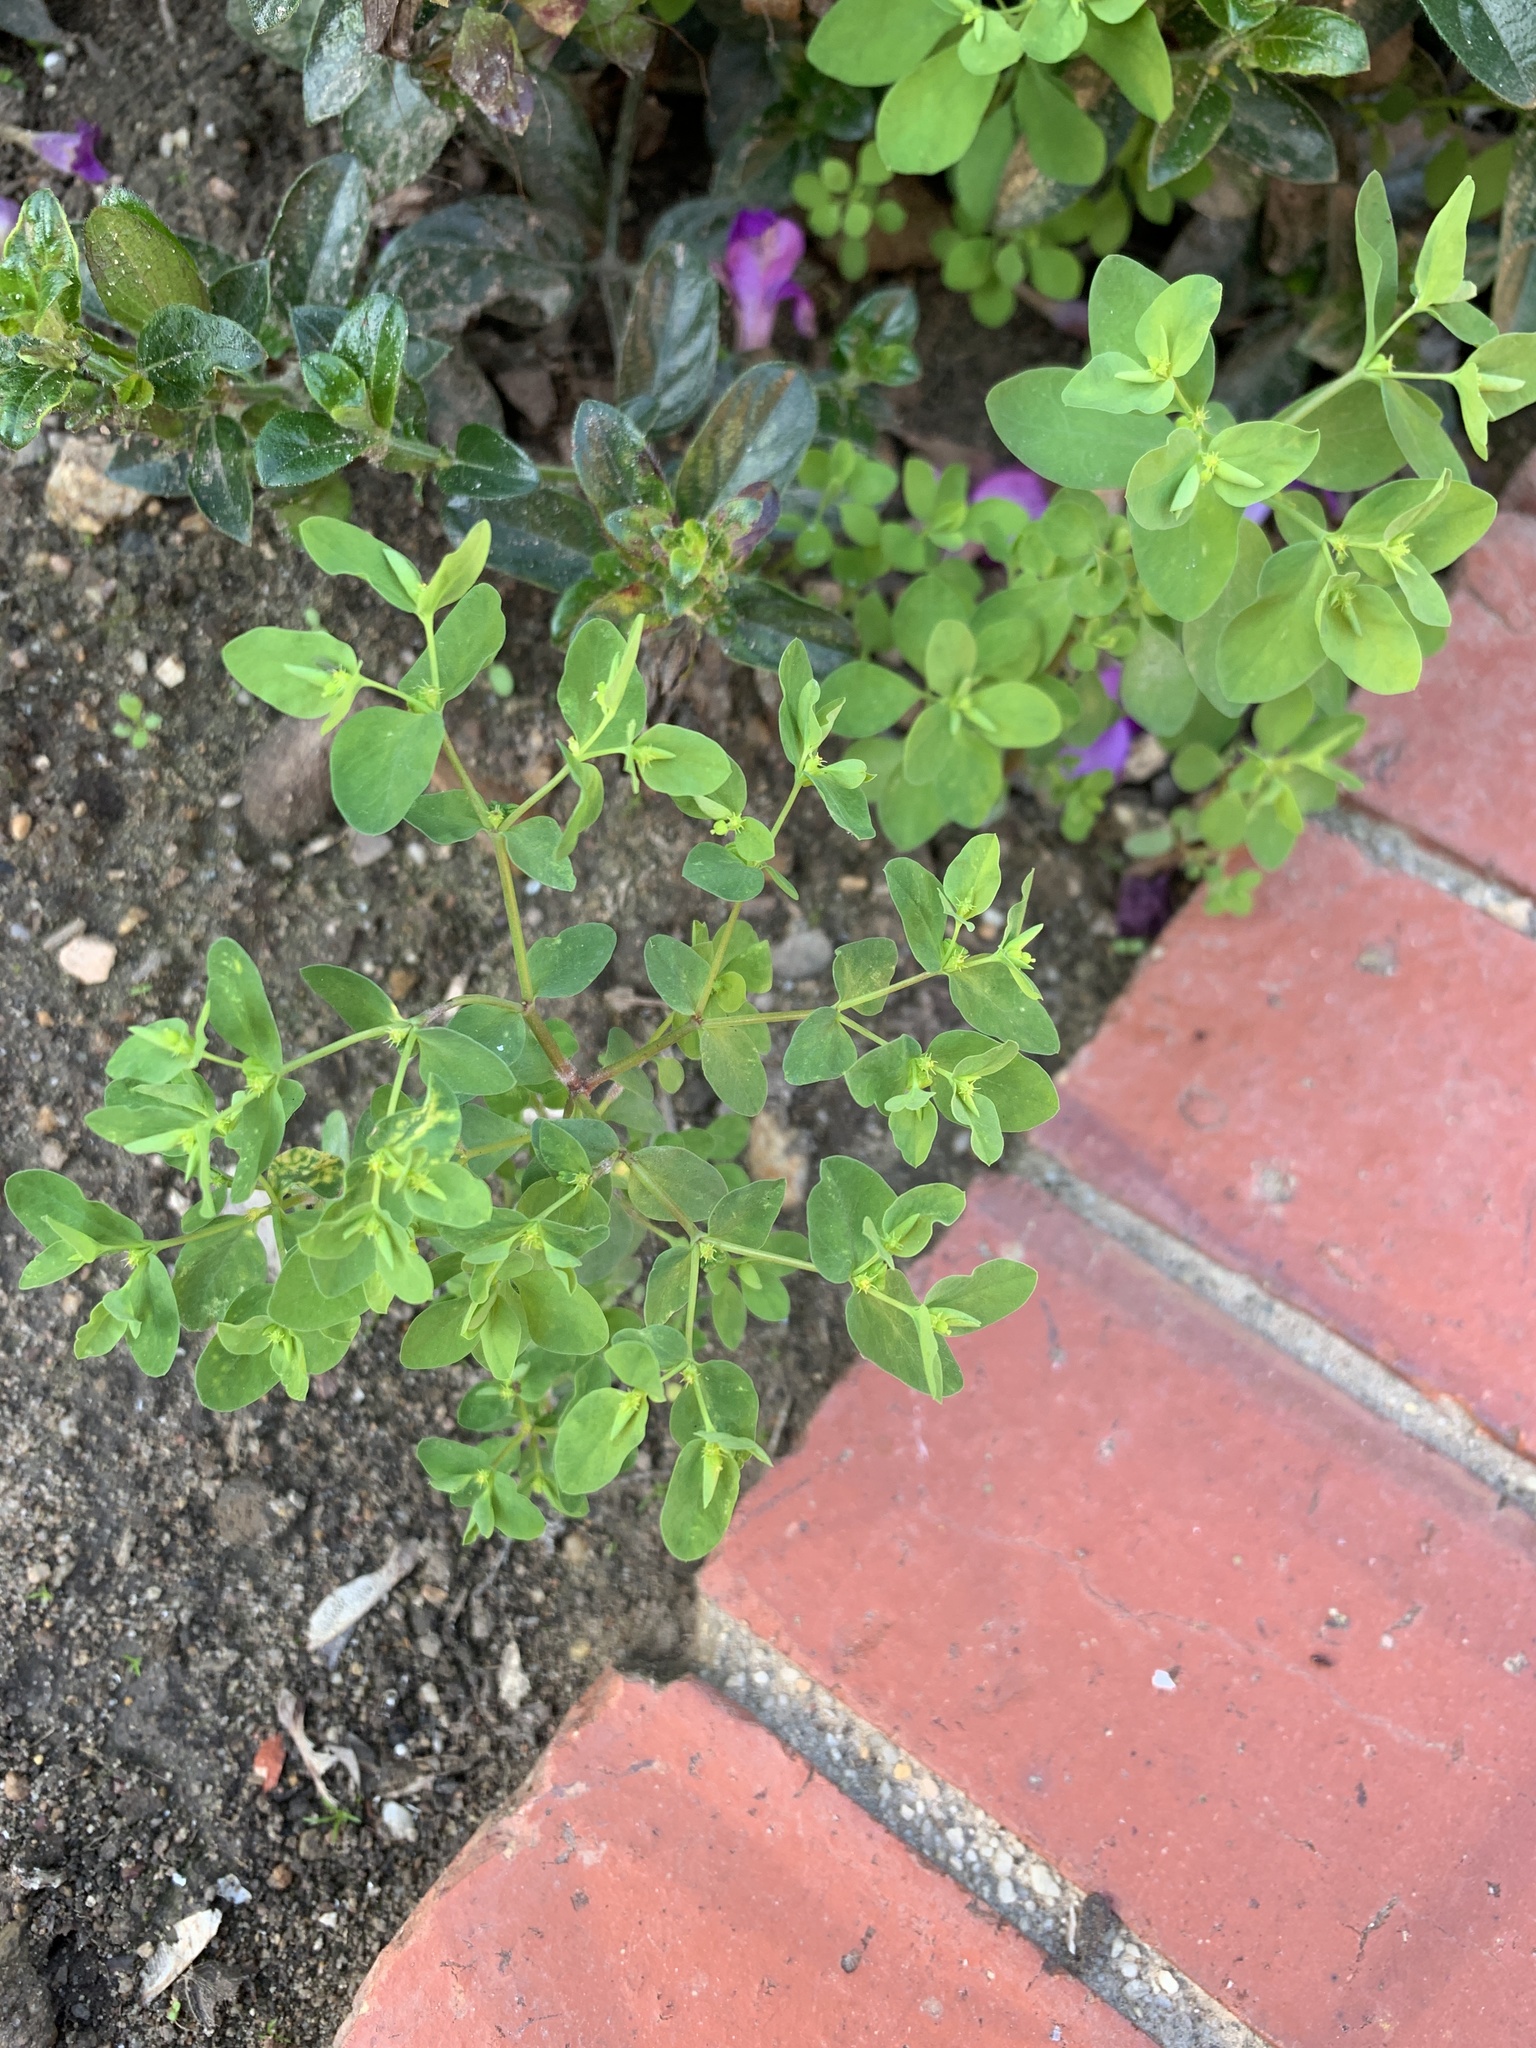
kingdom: Plantae
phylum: Tracheophyta
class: Magnoliopsida
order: Malpighiales
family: Euphorbiaceae
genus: Euphorbia
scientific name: Euphorbia peplus
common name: Petty spurge
